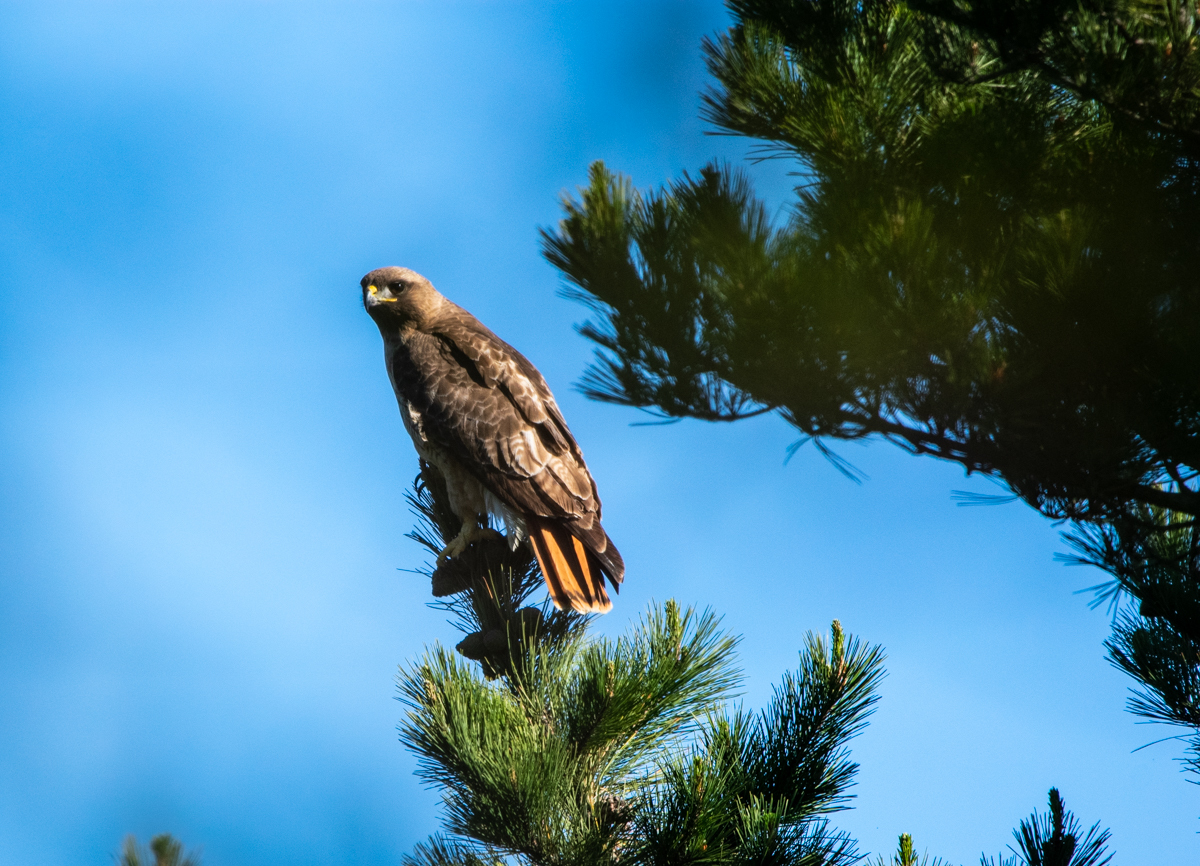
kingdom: Animalia
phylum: Chordata
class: Aves
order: Accipitriformes
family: Accipitridae
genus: Buteo
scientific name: Buteo jamaicensis
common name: Red-tailed hawk
